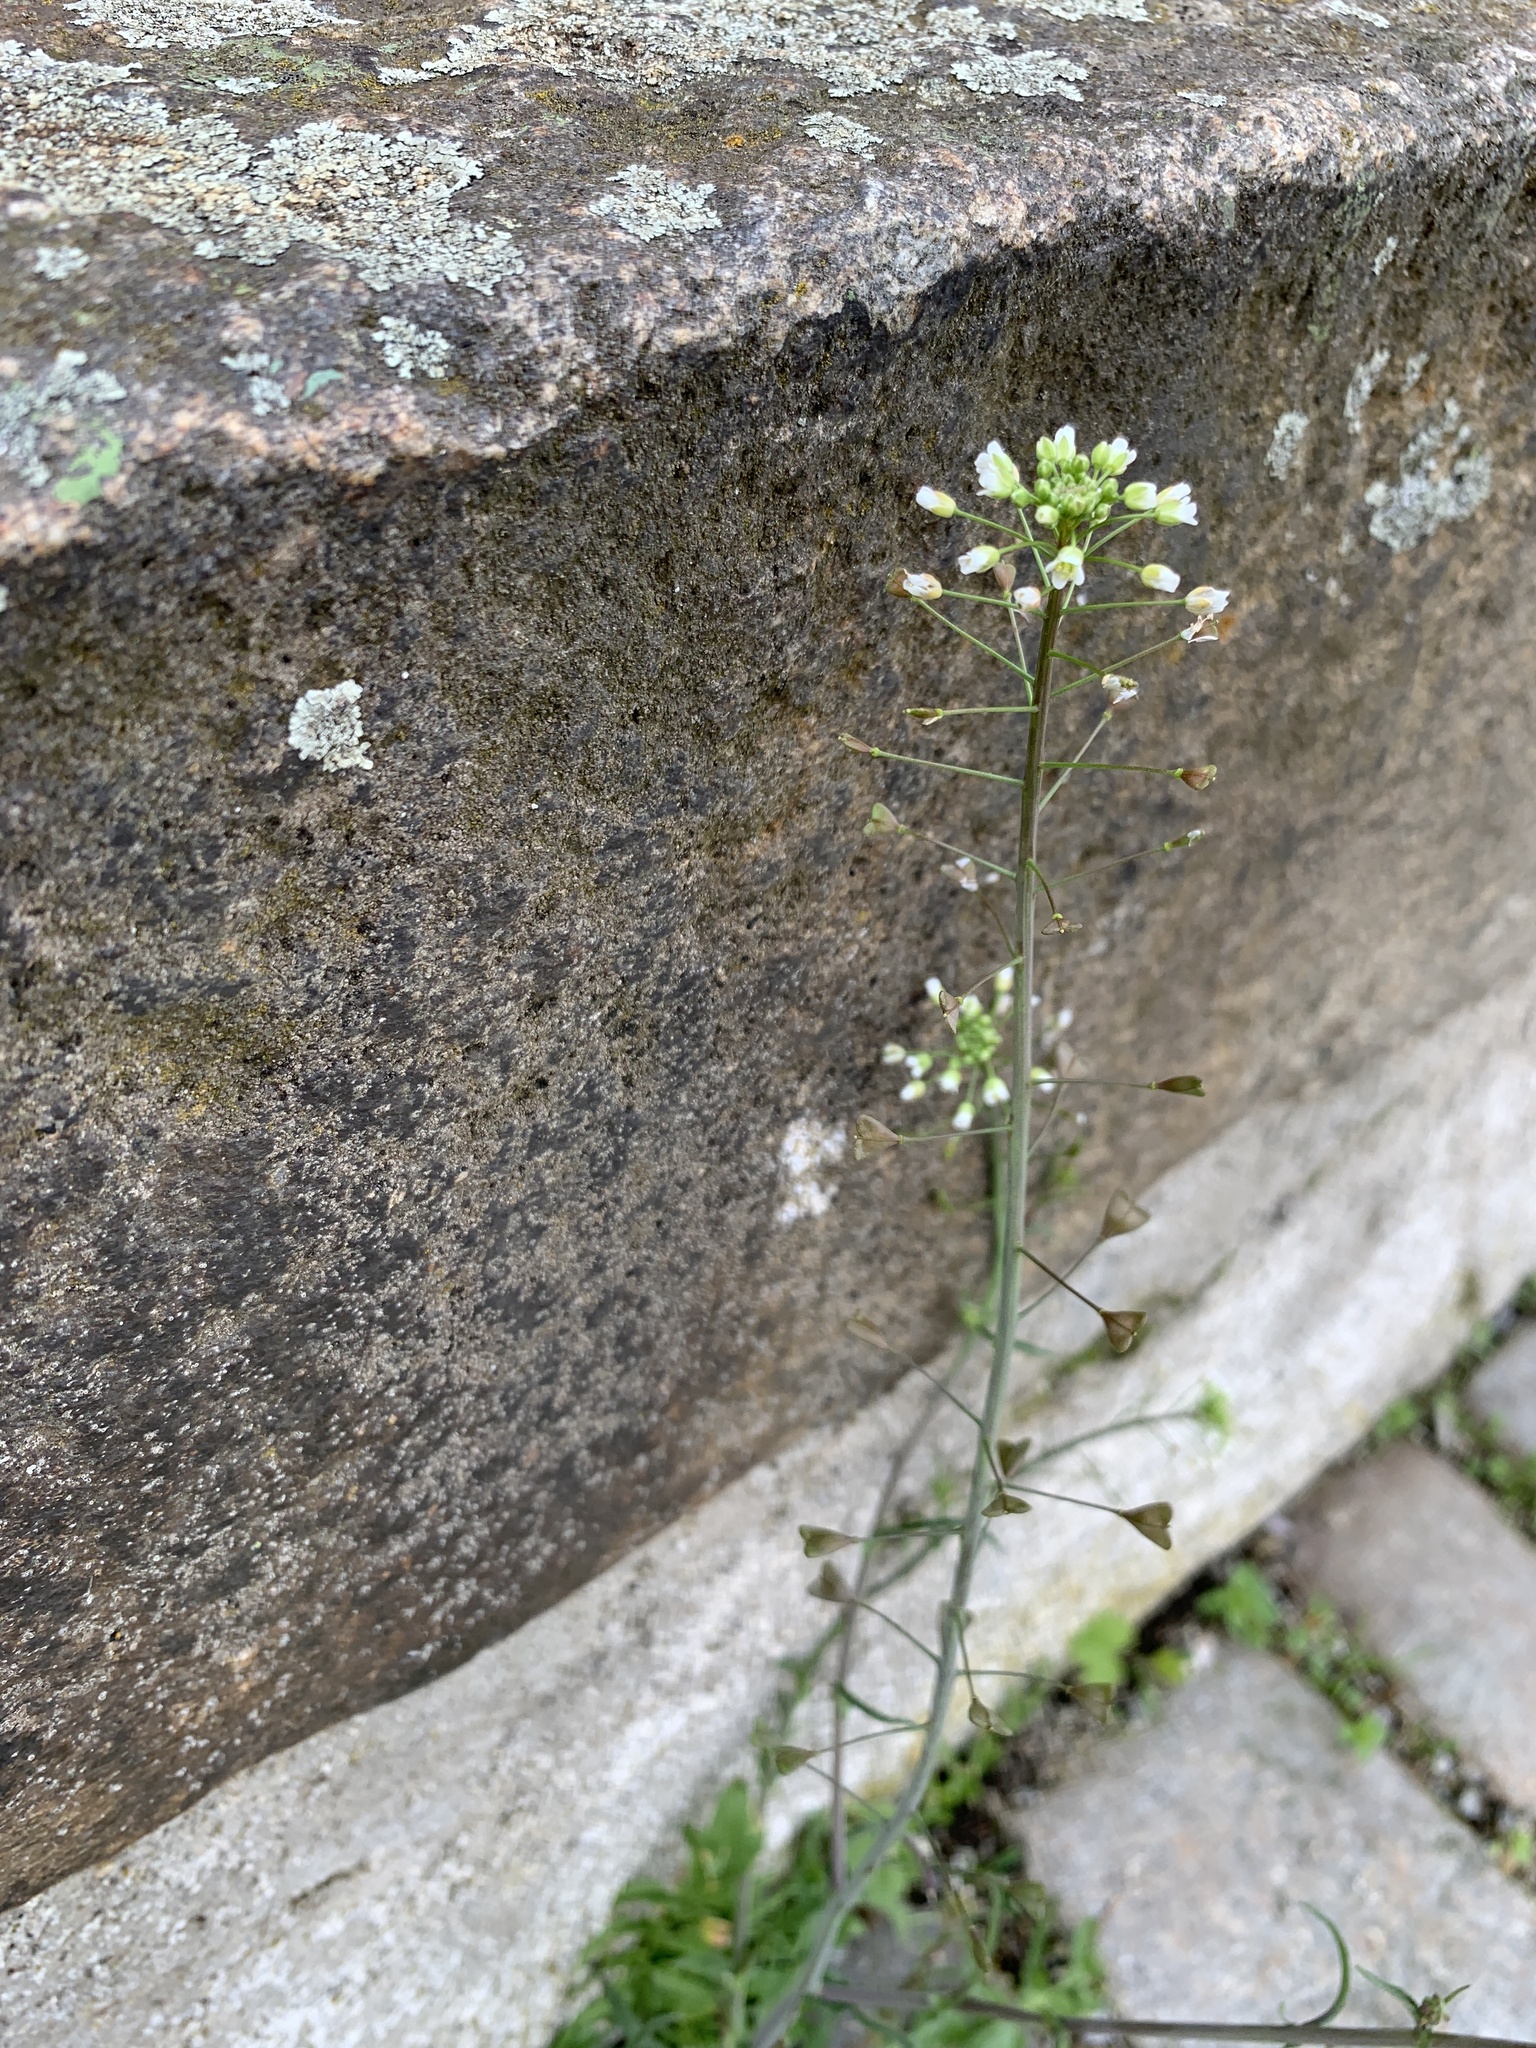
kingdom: Plantae
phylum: Tracheophyta
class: Magnoliopsida
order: Brassicales
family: Brassicaceae
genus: Capsella
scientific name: Capsella bursa-pastoris
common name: Shepherd's purse
